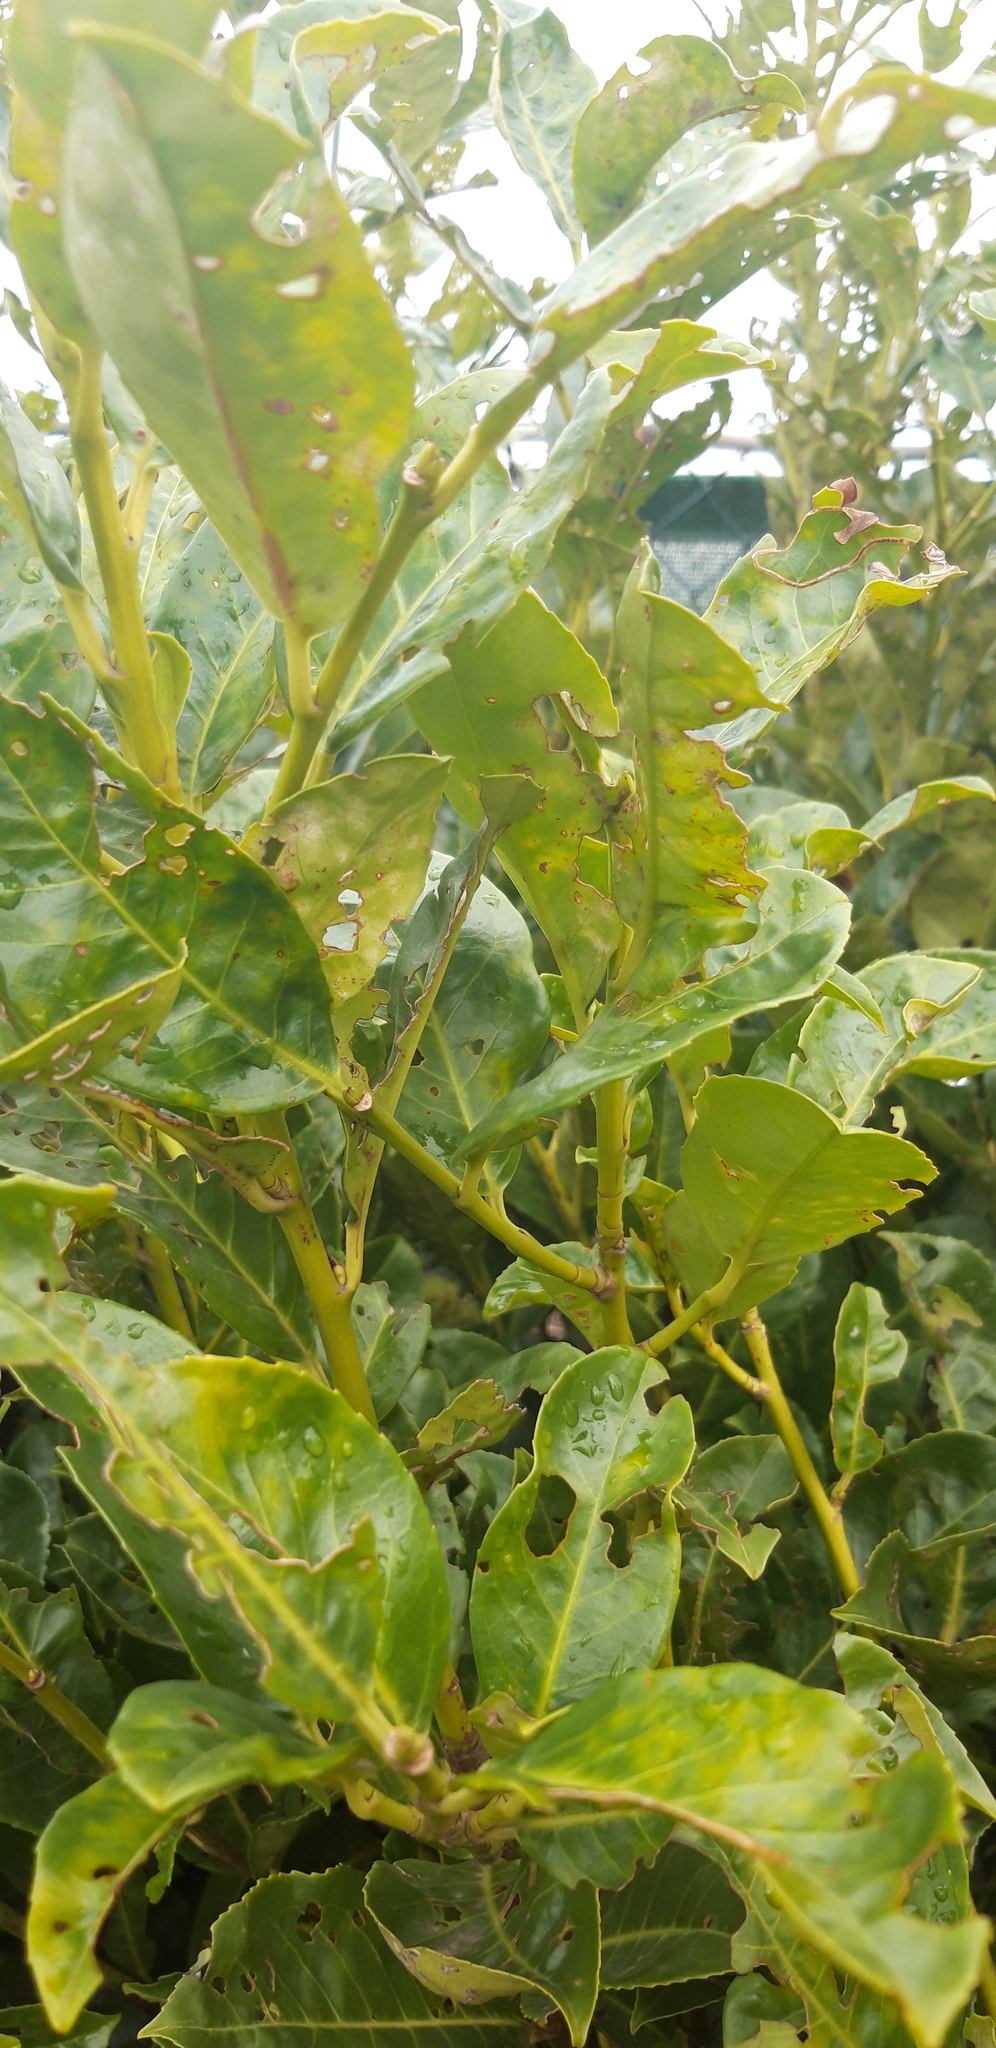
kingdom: Plantae
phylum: Tracheophyta
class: Magnoliopsida
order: Rosales
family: Rosaceae
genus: Prunus
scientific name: Prunus laurocerasus
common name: Cherry laurel
